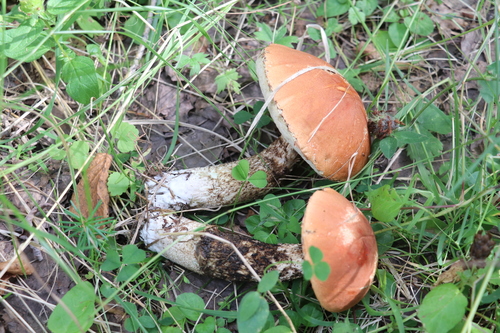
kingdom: Fungi
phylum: Basidiomycota
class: Agaricomycetes
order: Boletales
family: Boletaceae
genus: Leccinum
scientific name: Leccinum
